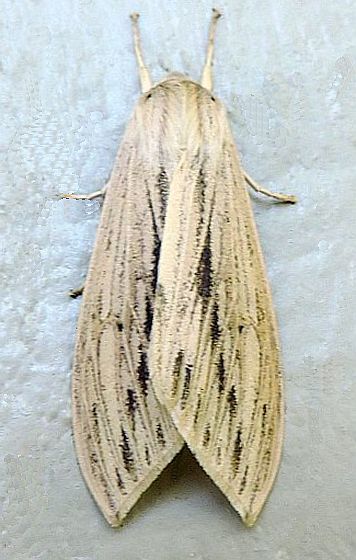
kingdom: Animalia
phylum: Arthropoda
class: Insecta
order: Lepidoptera
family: Erebidae
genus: Leucanopsis
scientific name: Leucanopsis lurida
